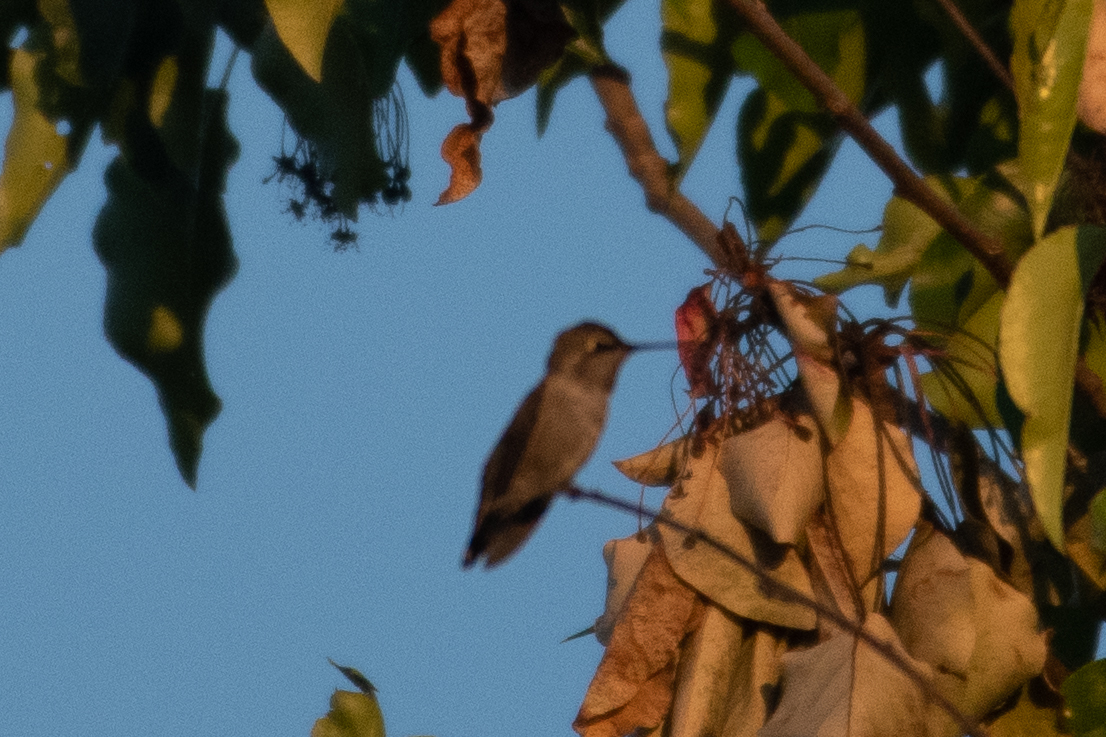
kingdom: Animalia
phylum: Chordata
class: Aves
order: Apodiformes
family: Trochilidae
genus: Calypte
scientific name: Calypte anna
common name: Anna's hummingbird
